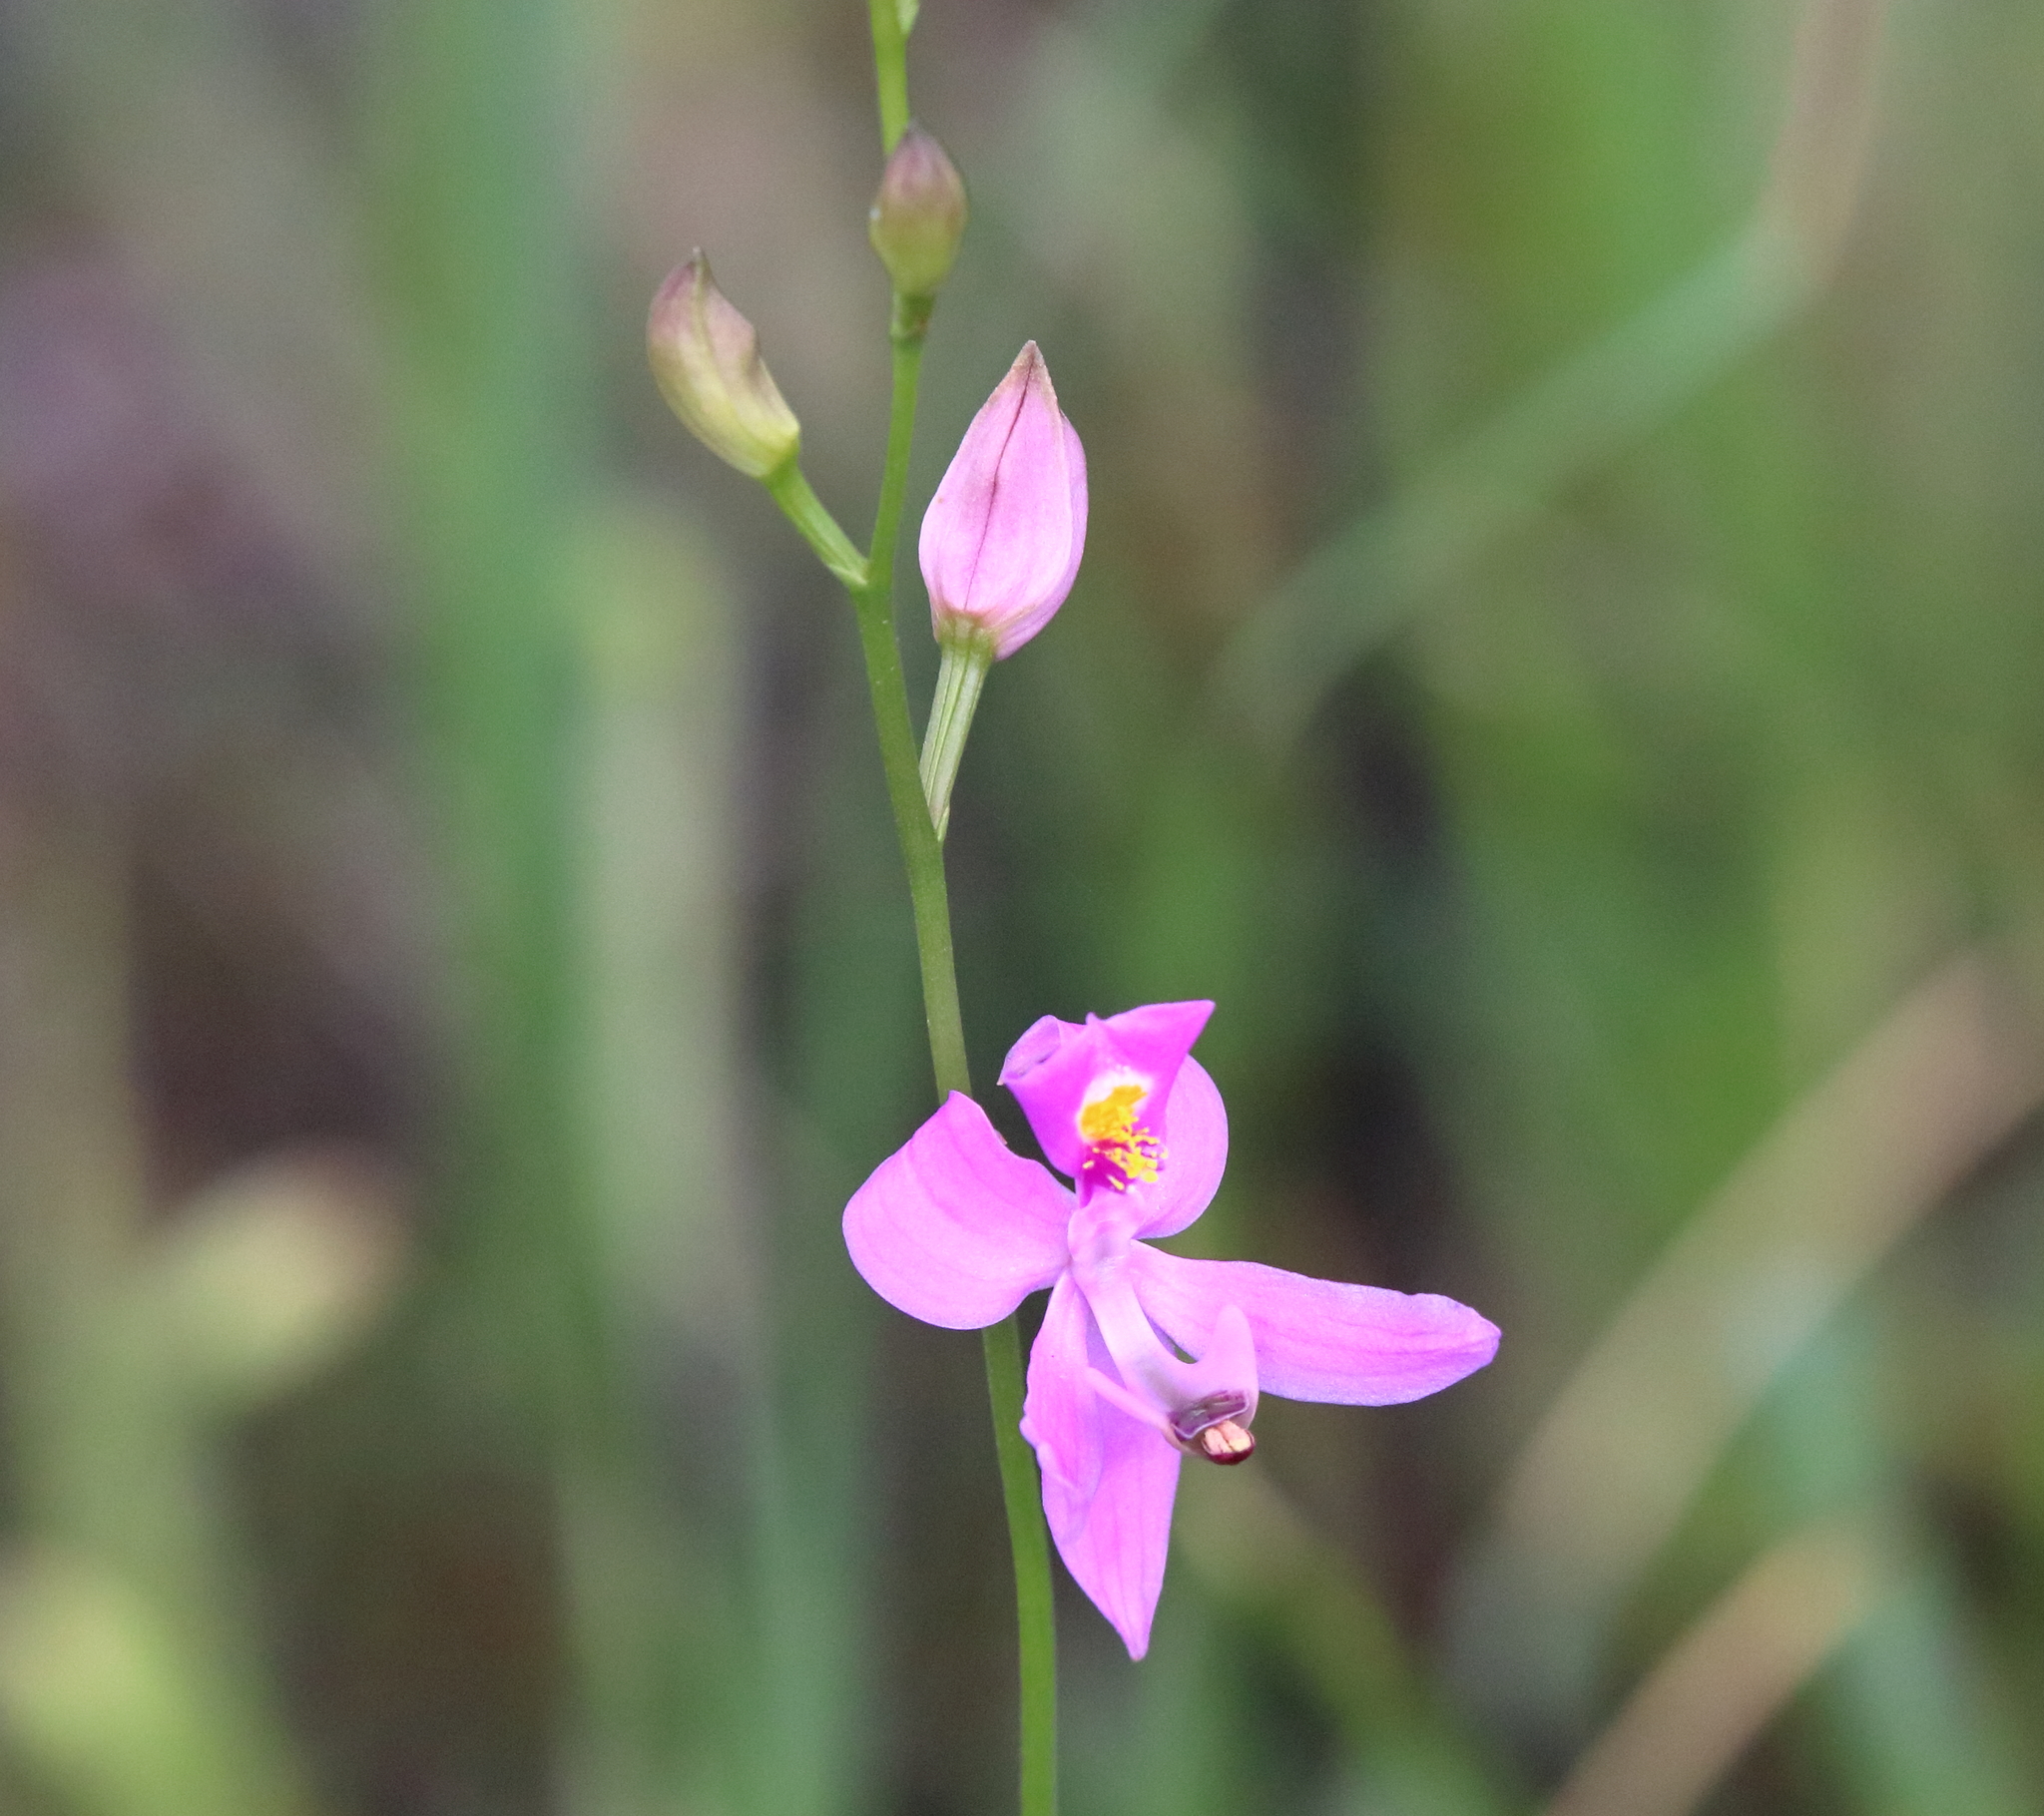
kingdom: Plantae
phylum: Tracheophyta
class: Liliopsida
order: Asparagales
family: Orchidaceae
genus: Calopogon
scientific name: Calopogon pallidus
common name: Pale grasspink
